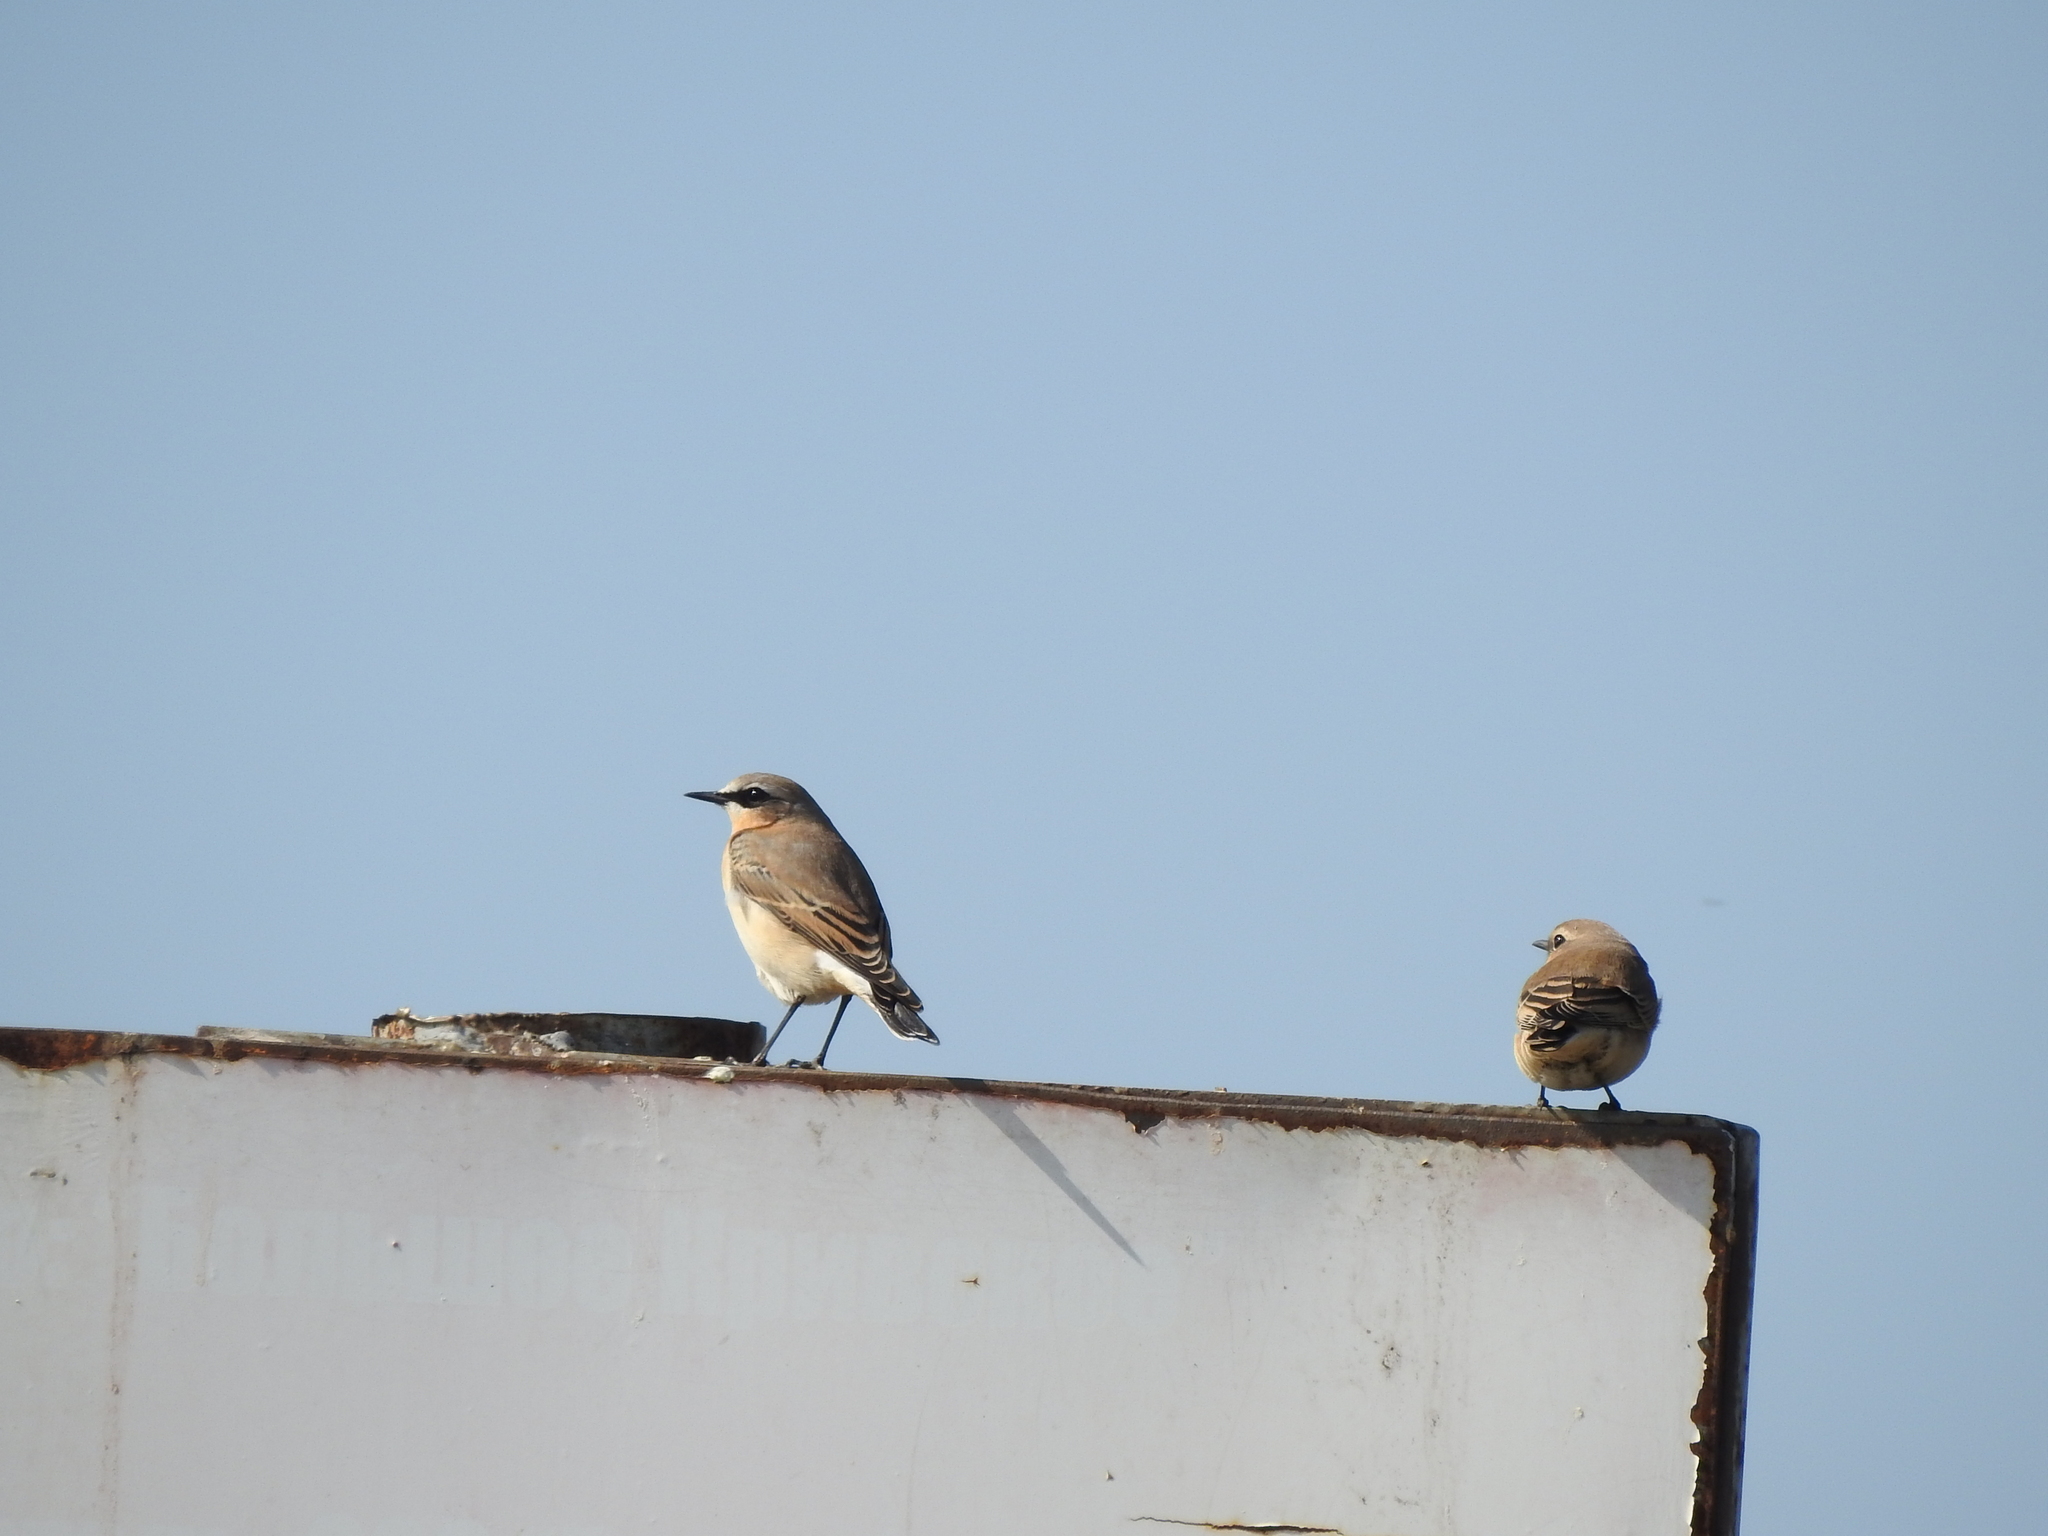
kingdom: Animalia
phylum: Chordata
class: Aves
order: Passeriformes
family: Muscicapidae
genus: Oenanthe
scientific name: Oenanthe oenanthe
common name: Northern wheatear
